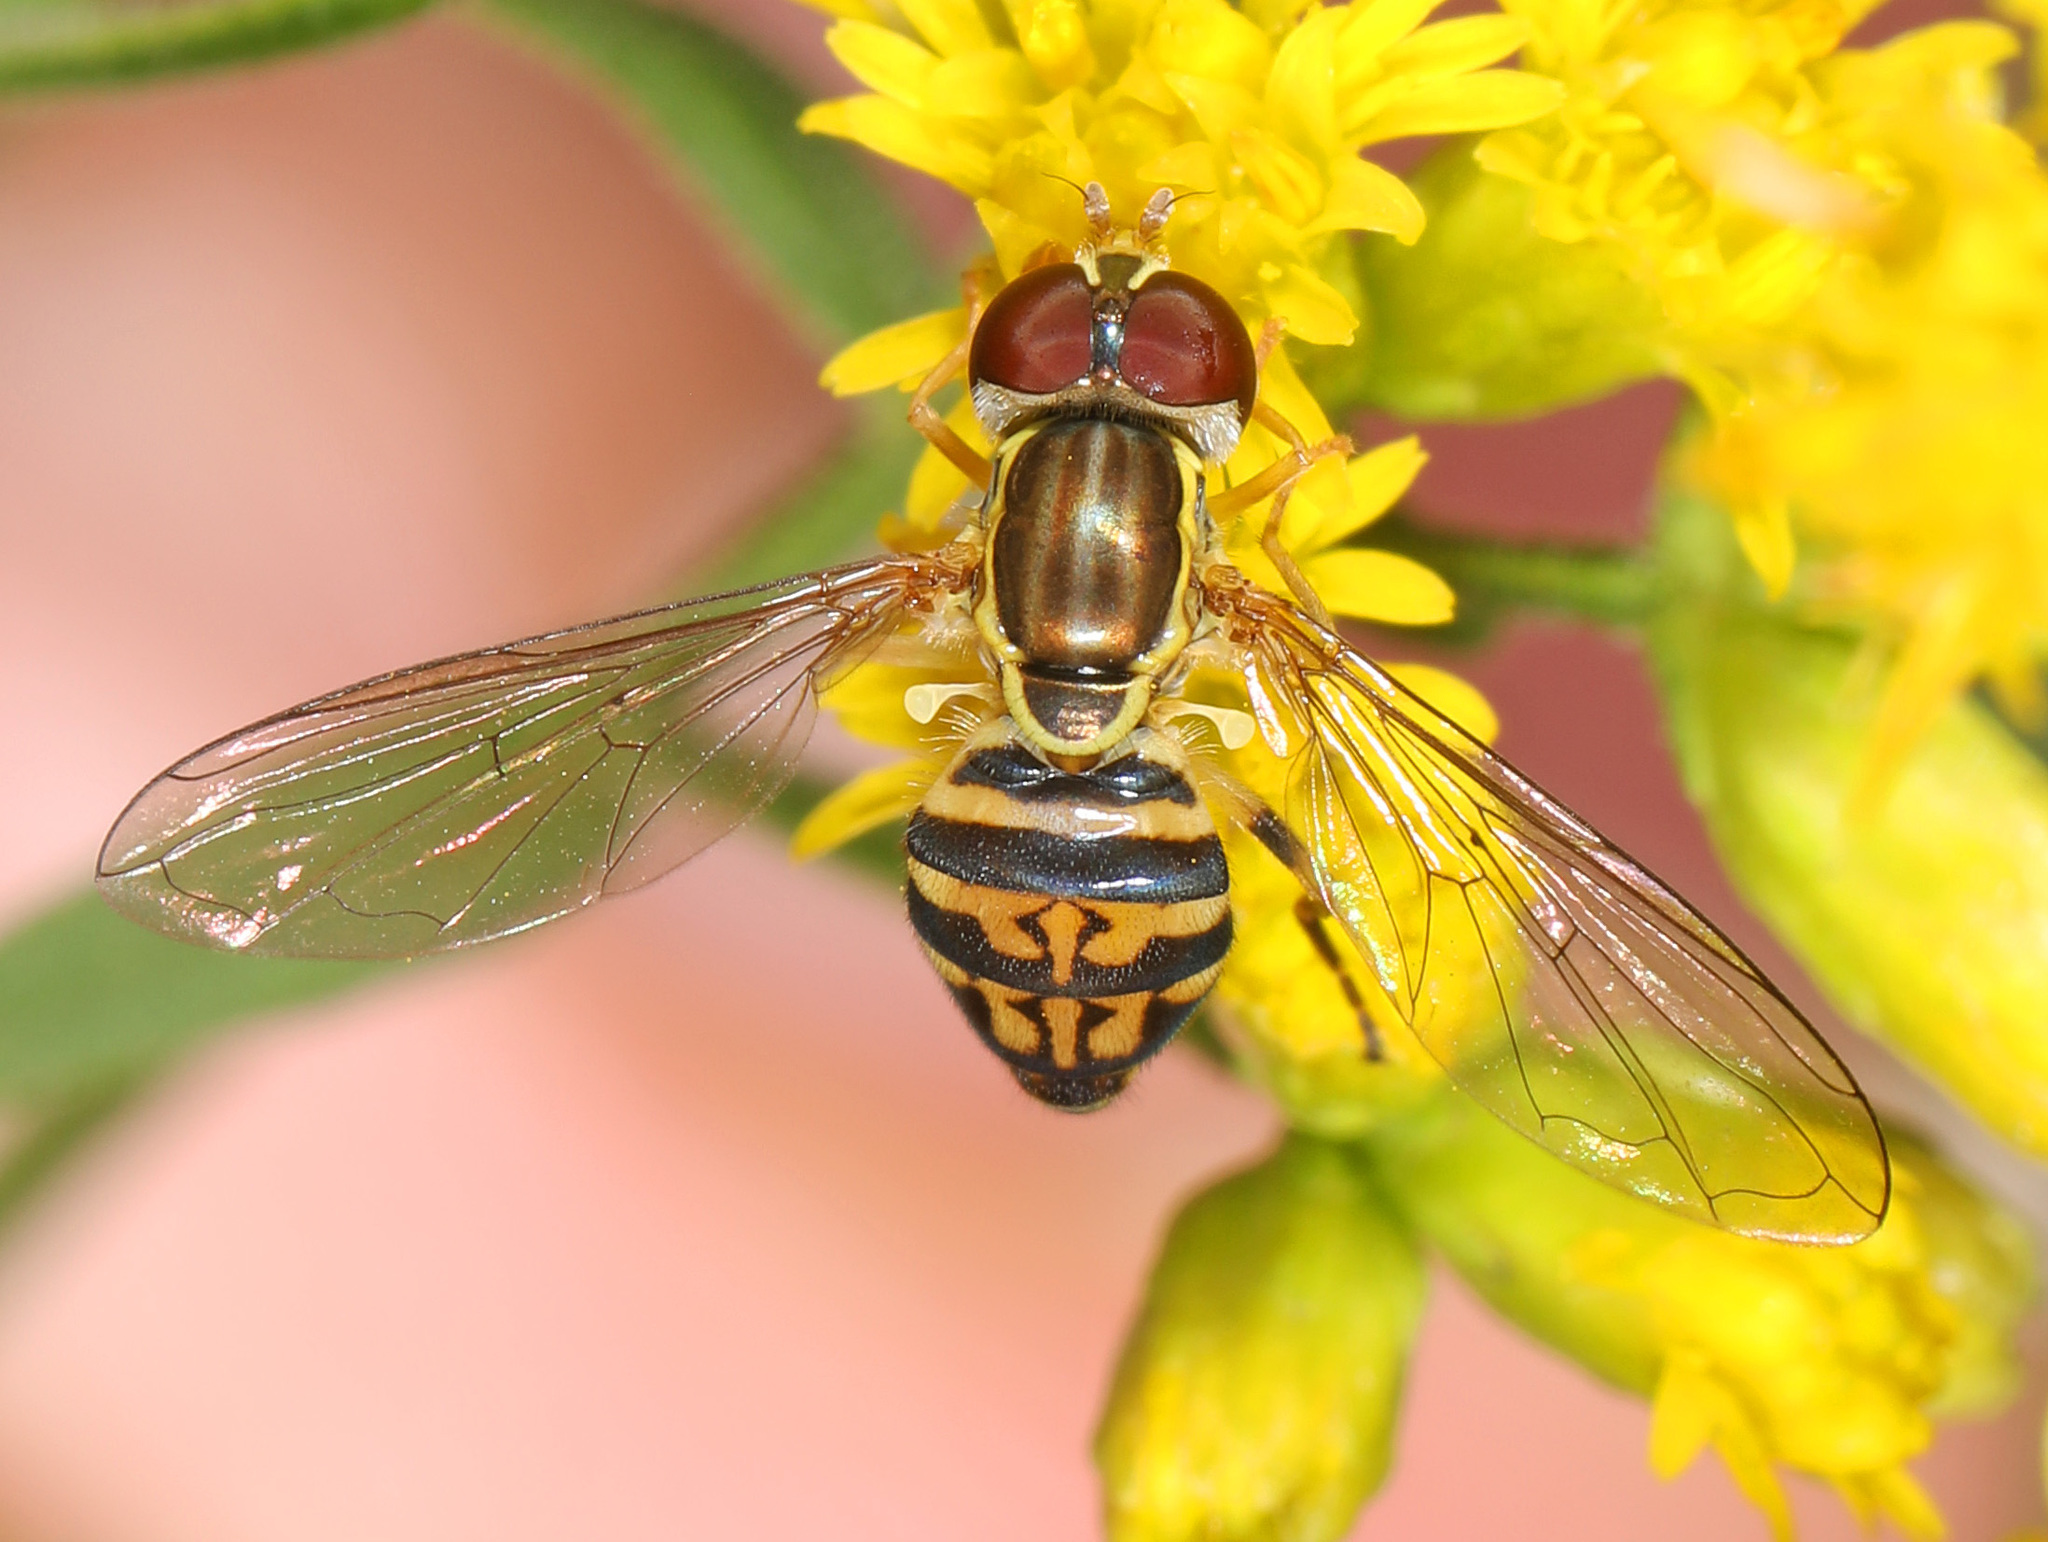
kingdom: Animalia
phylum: Arthropoda
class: Insecta
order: Diptera
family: Syrphidae
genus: Toxomerus
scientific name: Toxomerus geminatus
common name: Eastern calligrapher
